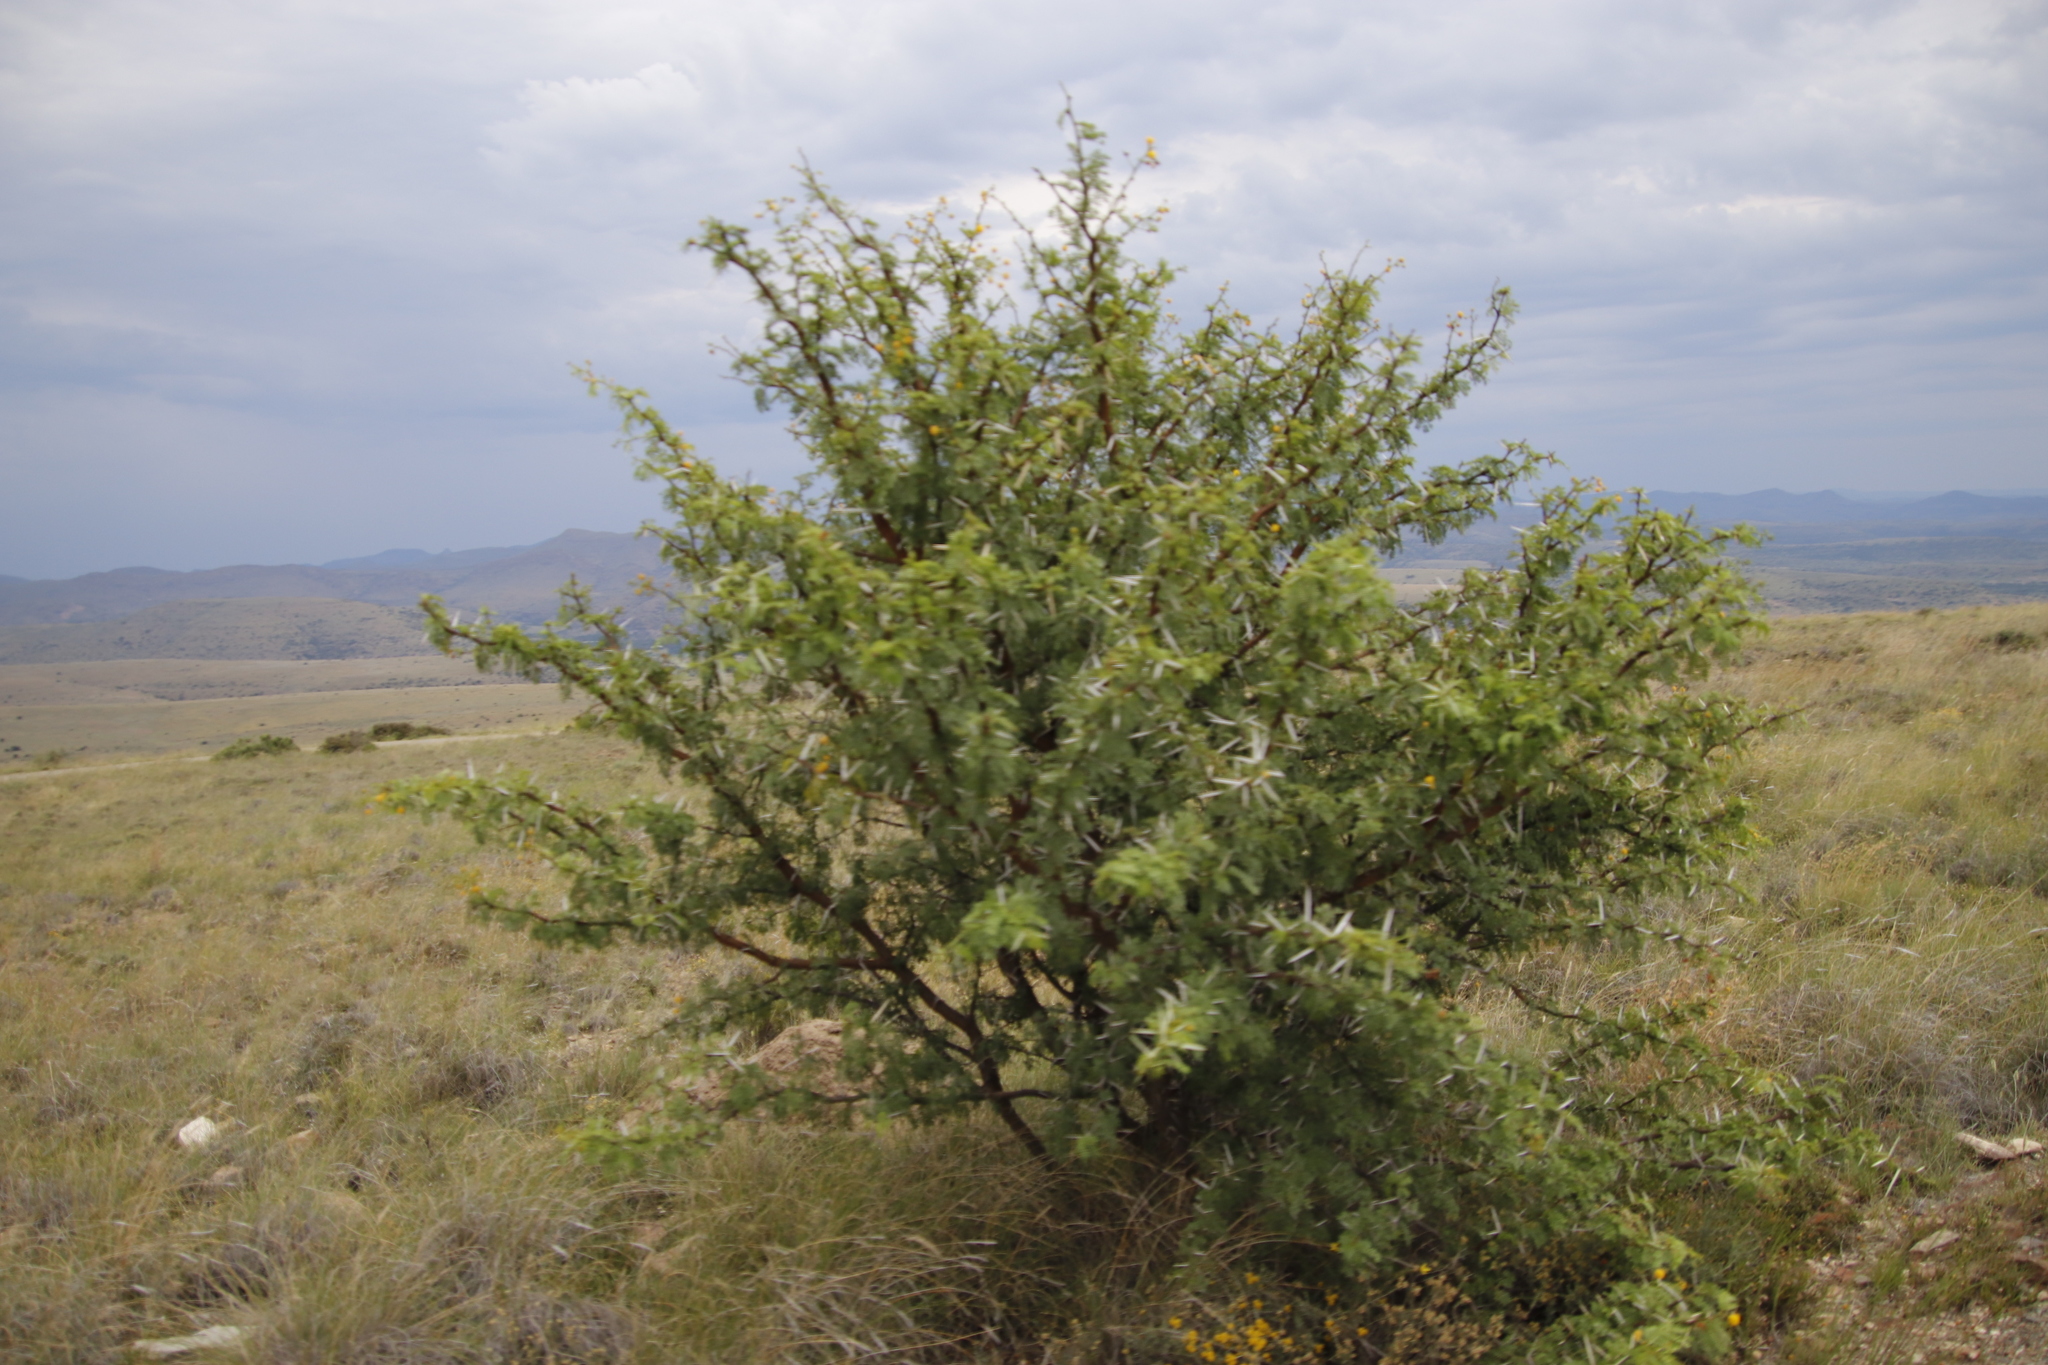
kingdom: Plantae
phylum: Tracheophyta
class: Magnoliopsida
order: Fabales
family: Fabaceae
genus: Vachellia
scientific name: Vachellia karroo
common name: Sweet thorn
